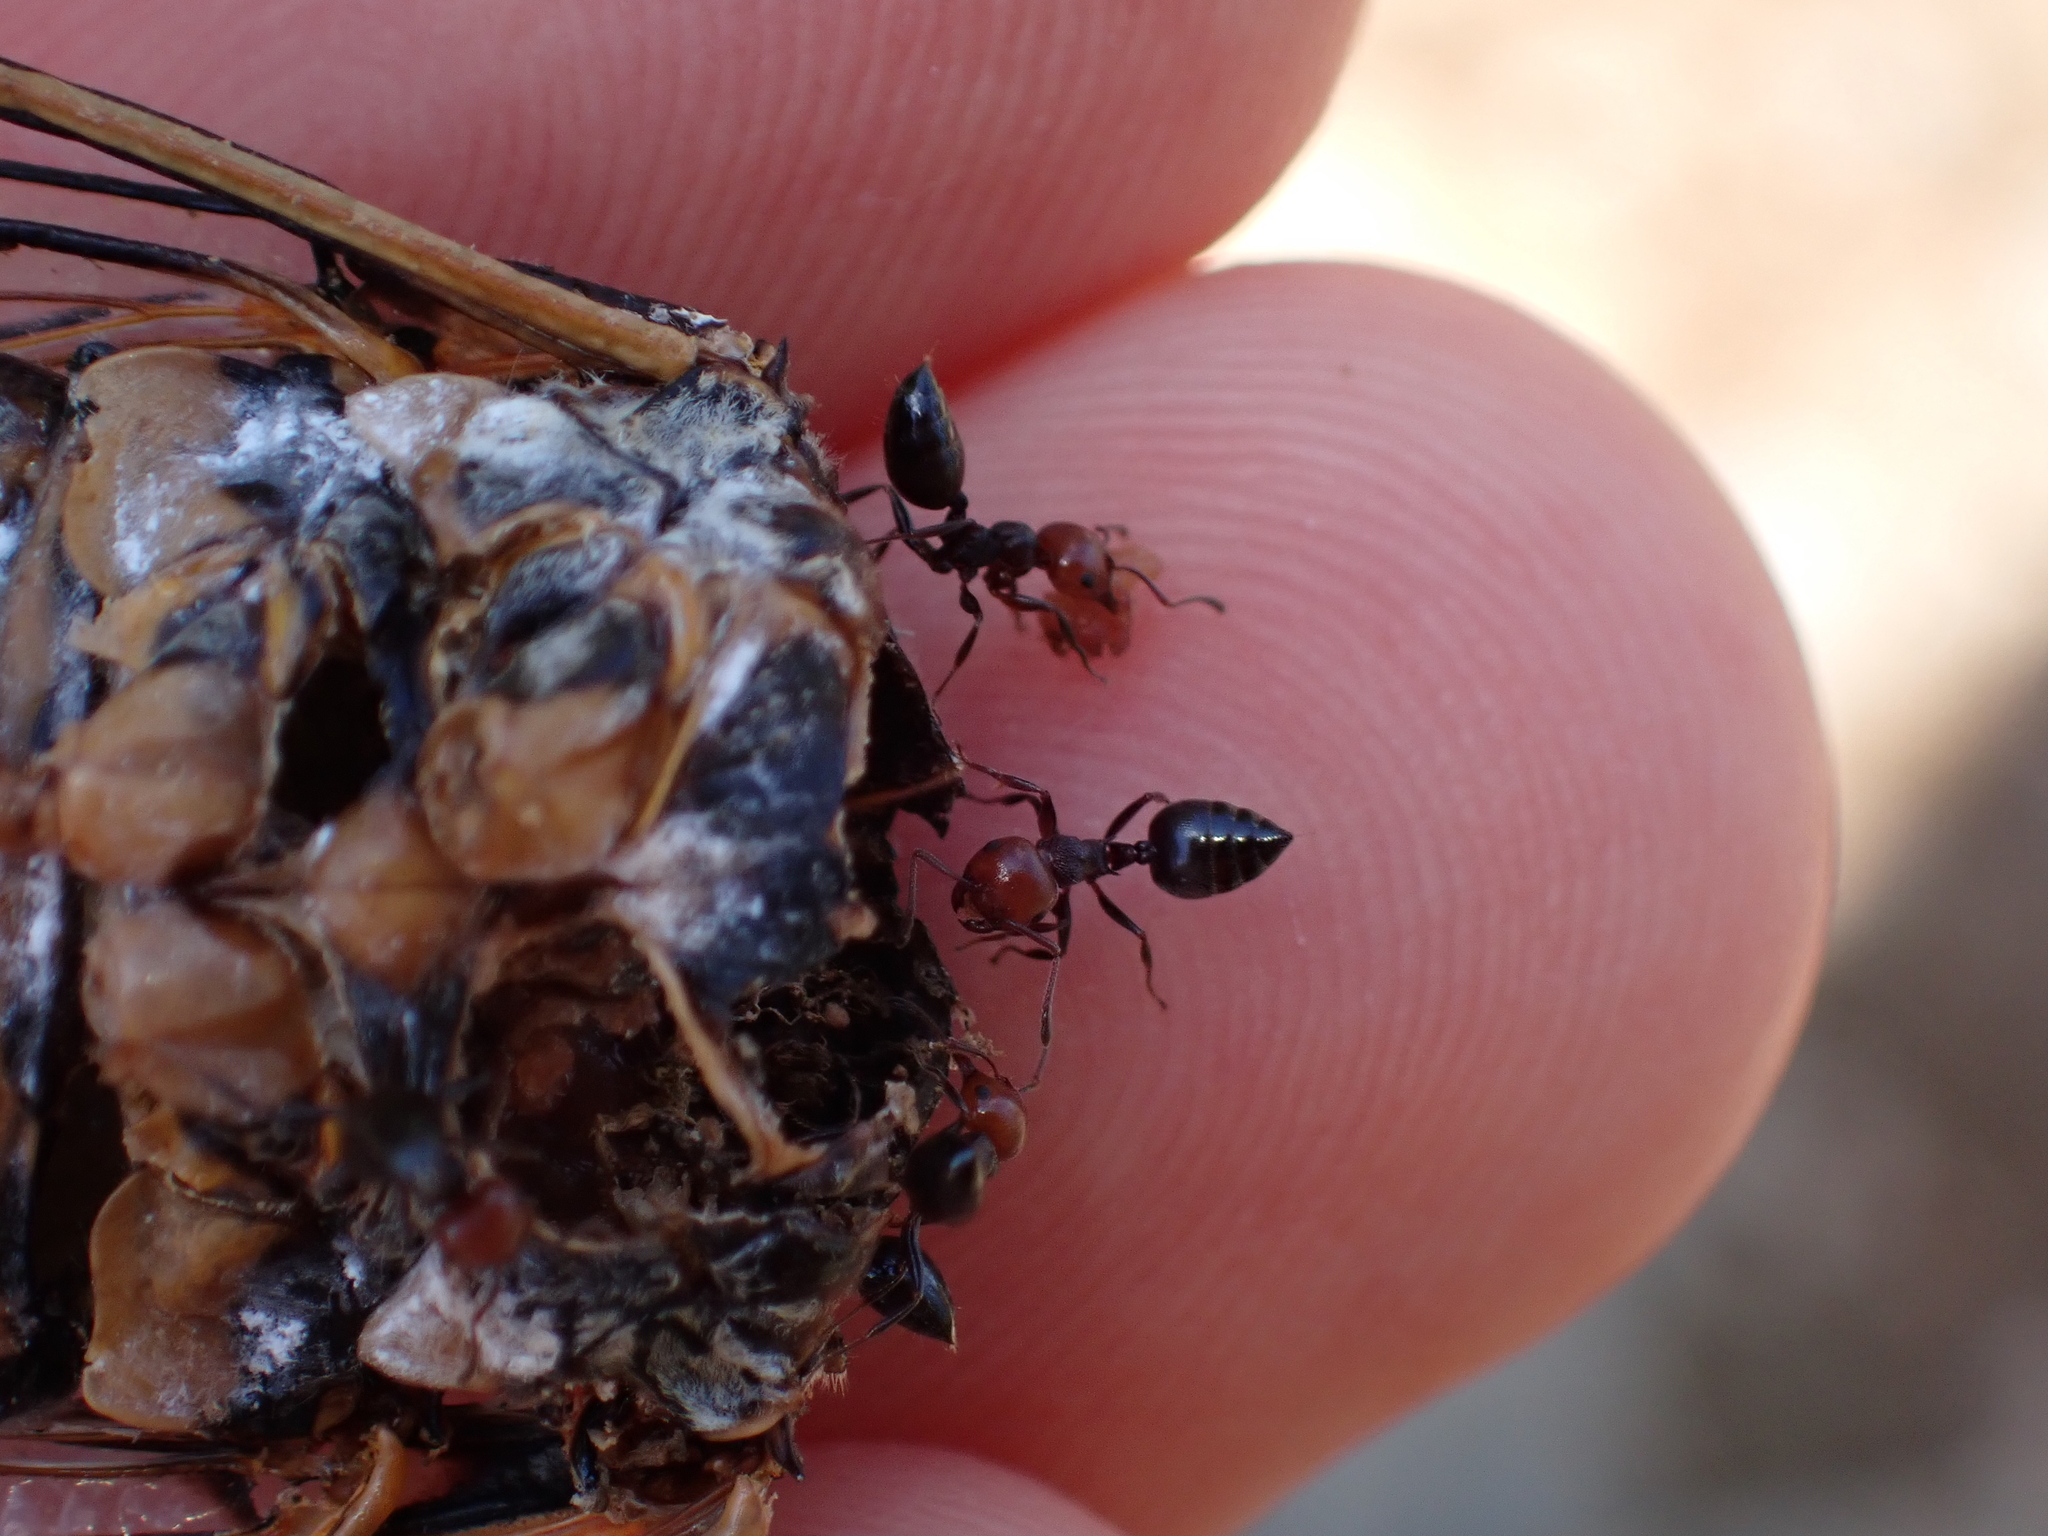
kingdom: Animalia
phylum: Arthropoda
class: Insecta
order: Hymenoptera
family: Formicidae
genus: Crematogaster
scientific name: Crematogaster scutellaris
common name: Fourmi du liège
